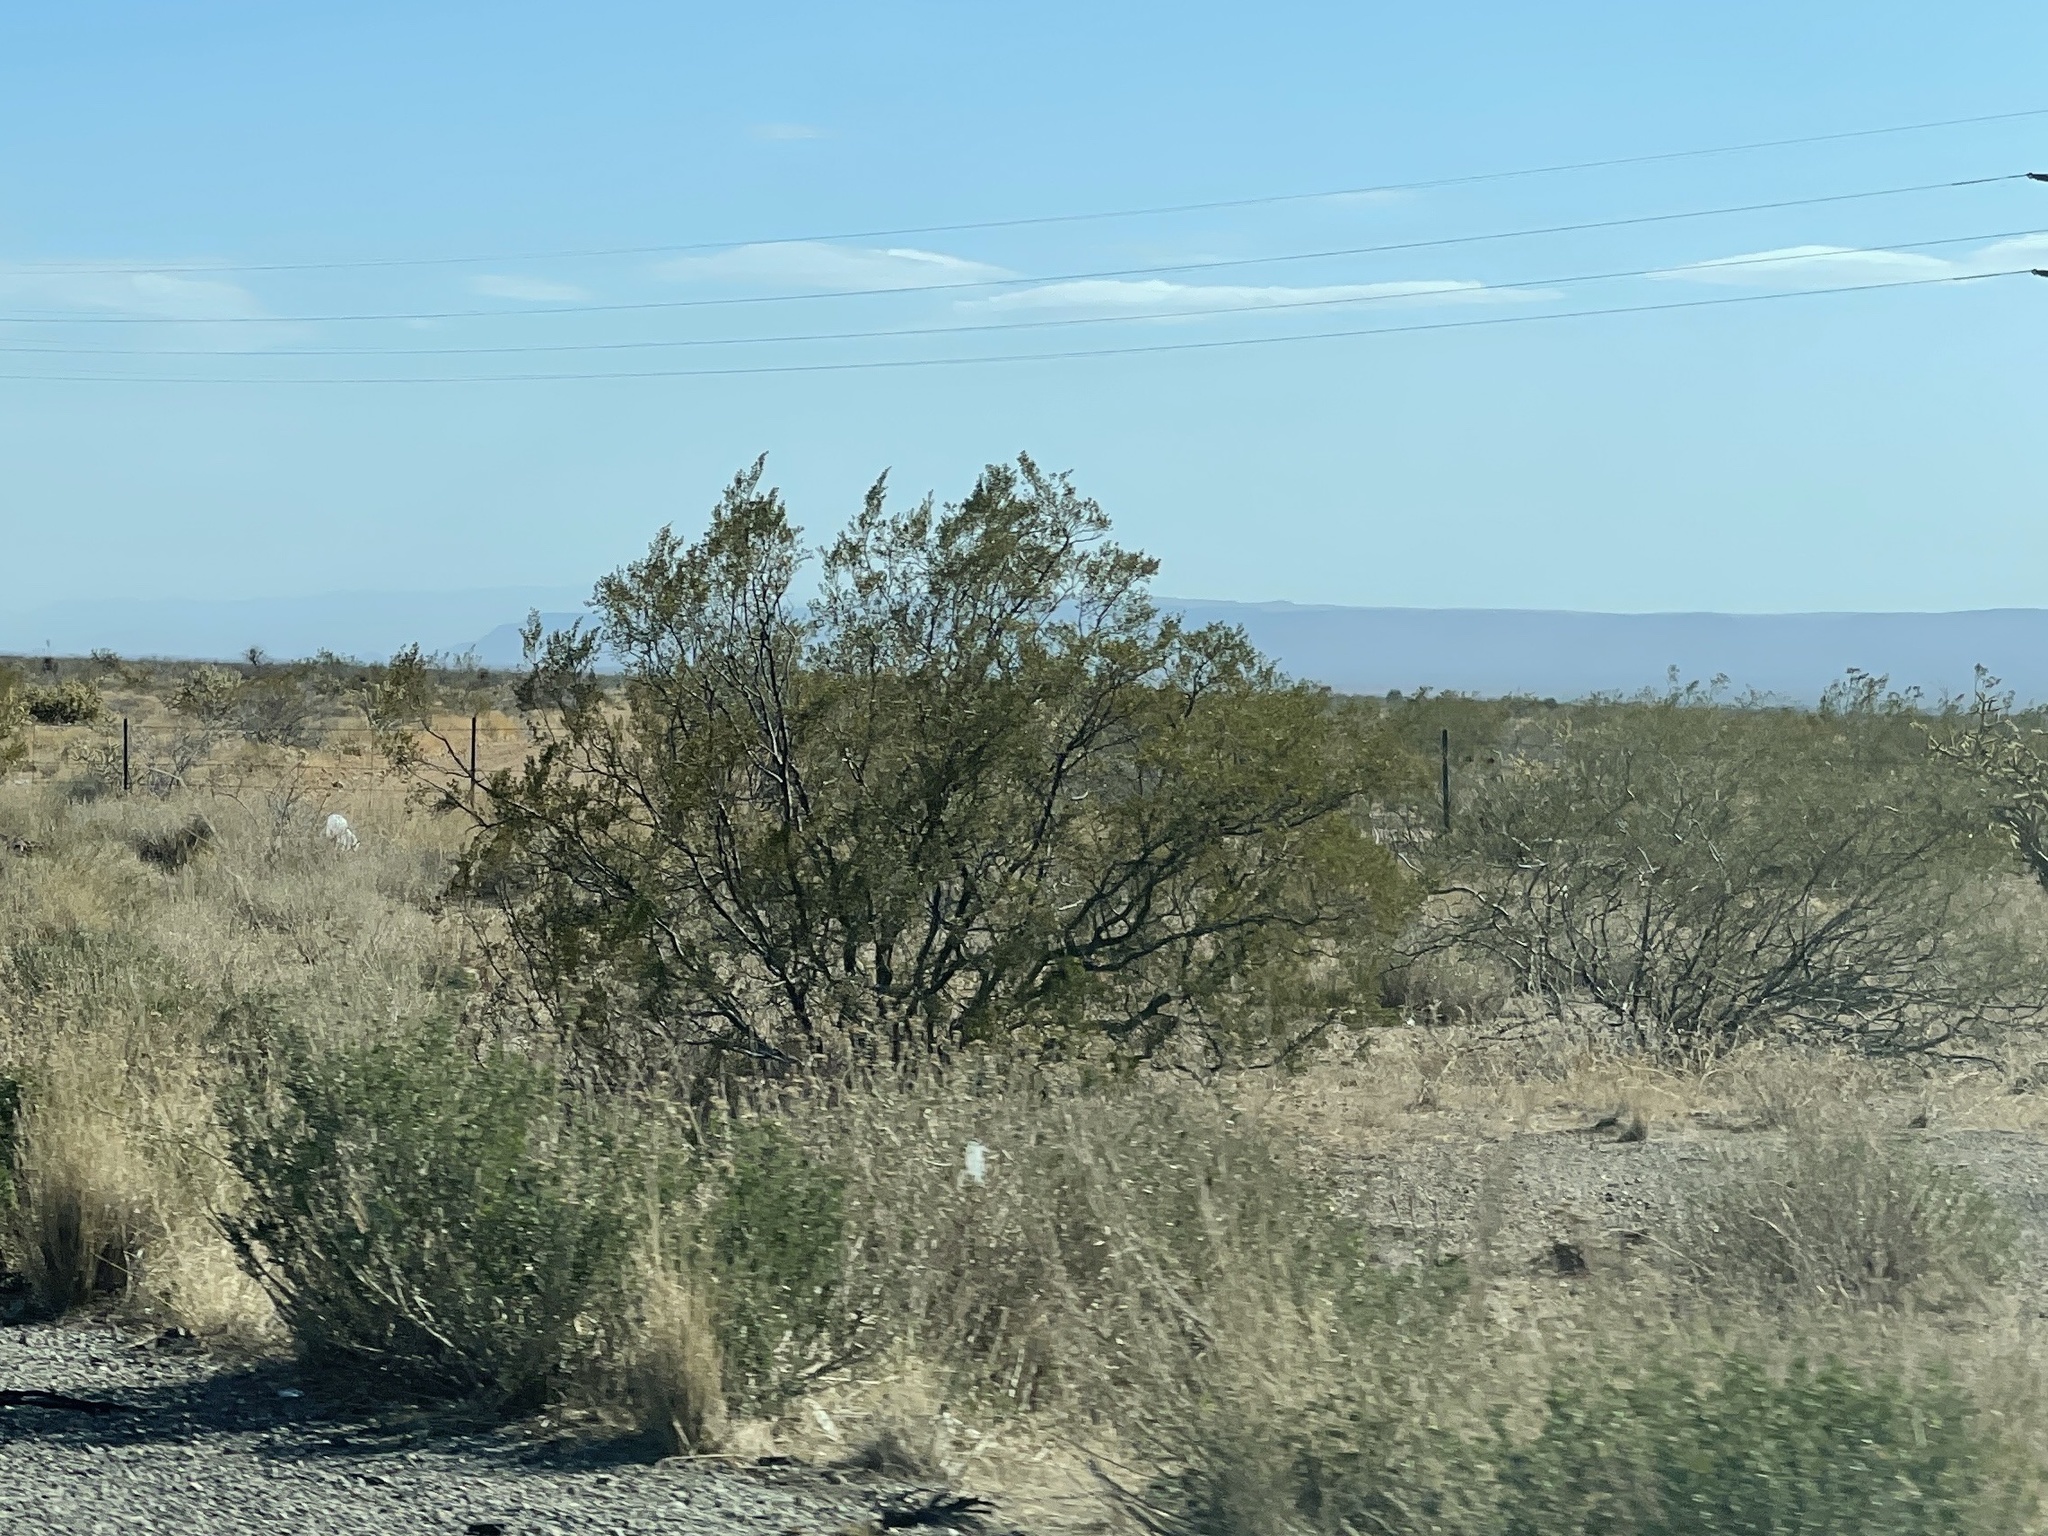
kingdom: Plantae
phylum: Tracheophyta
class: Magnoliopsida
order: Zygophyllales
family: Zygophyllaceae
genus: Larrea
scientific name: Larrea tridentata
